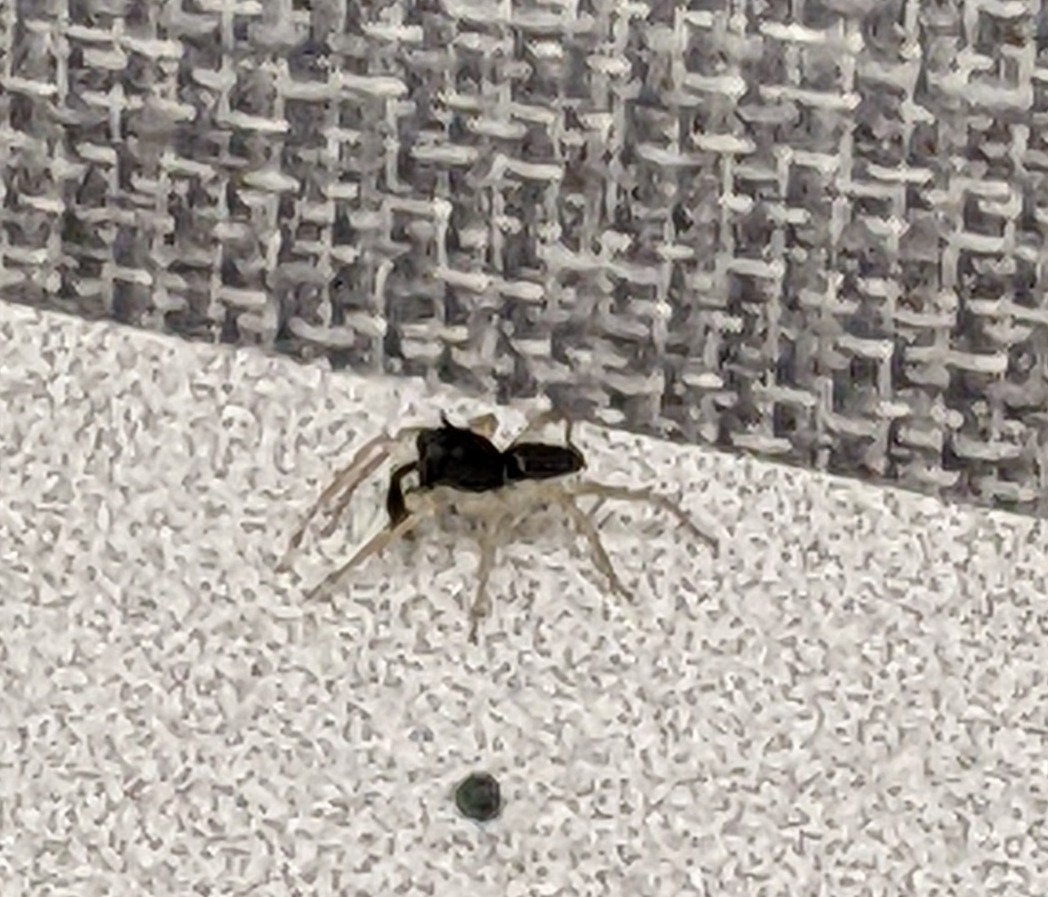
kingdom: Animalia
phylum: Arthropoda
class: Arachnida
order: Araneae
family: Salticidae
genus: Maevia
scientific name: Maevia inclemens
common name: Dimorphic jumper
